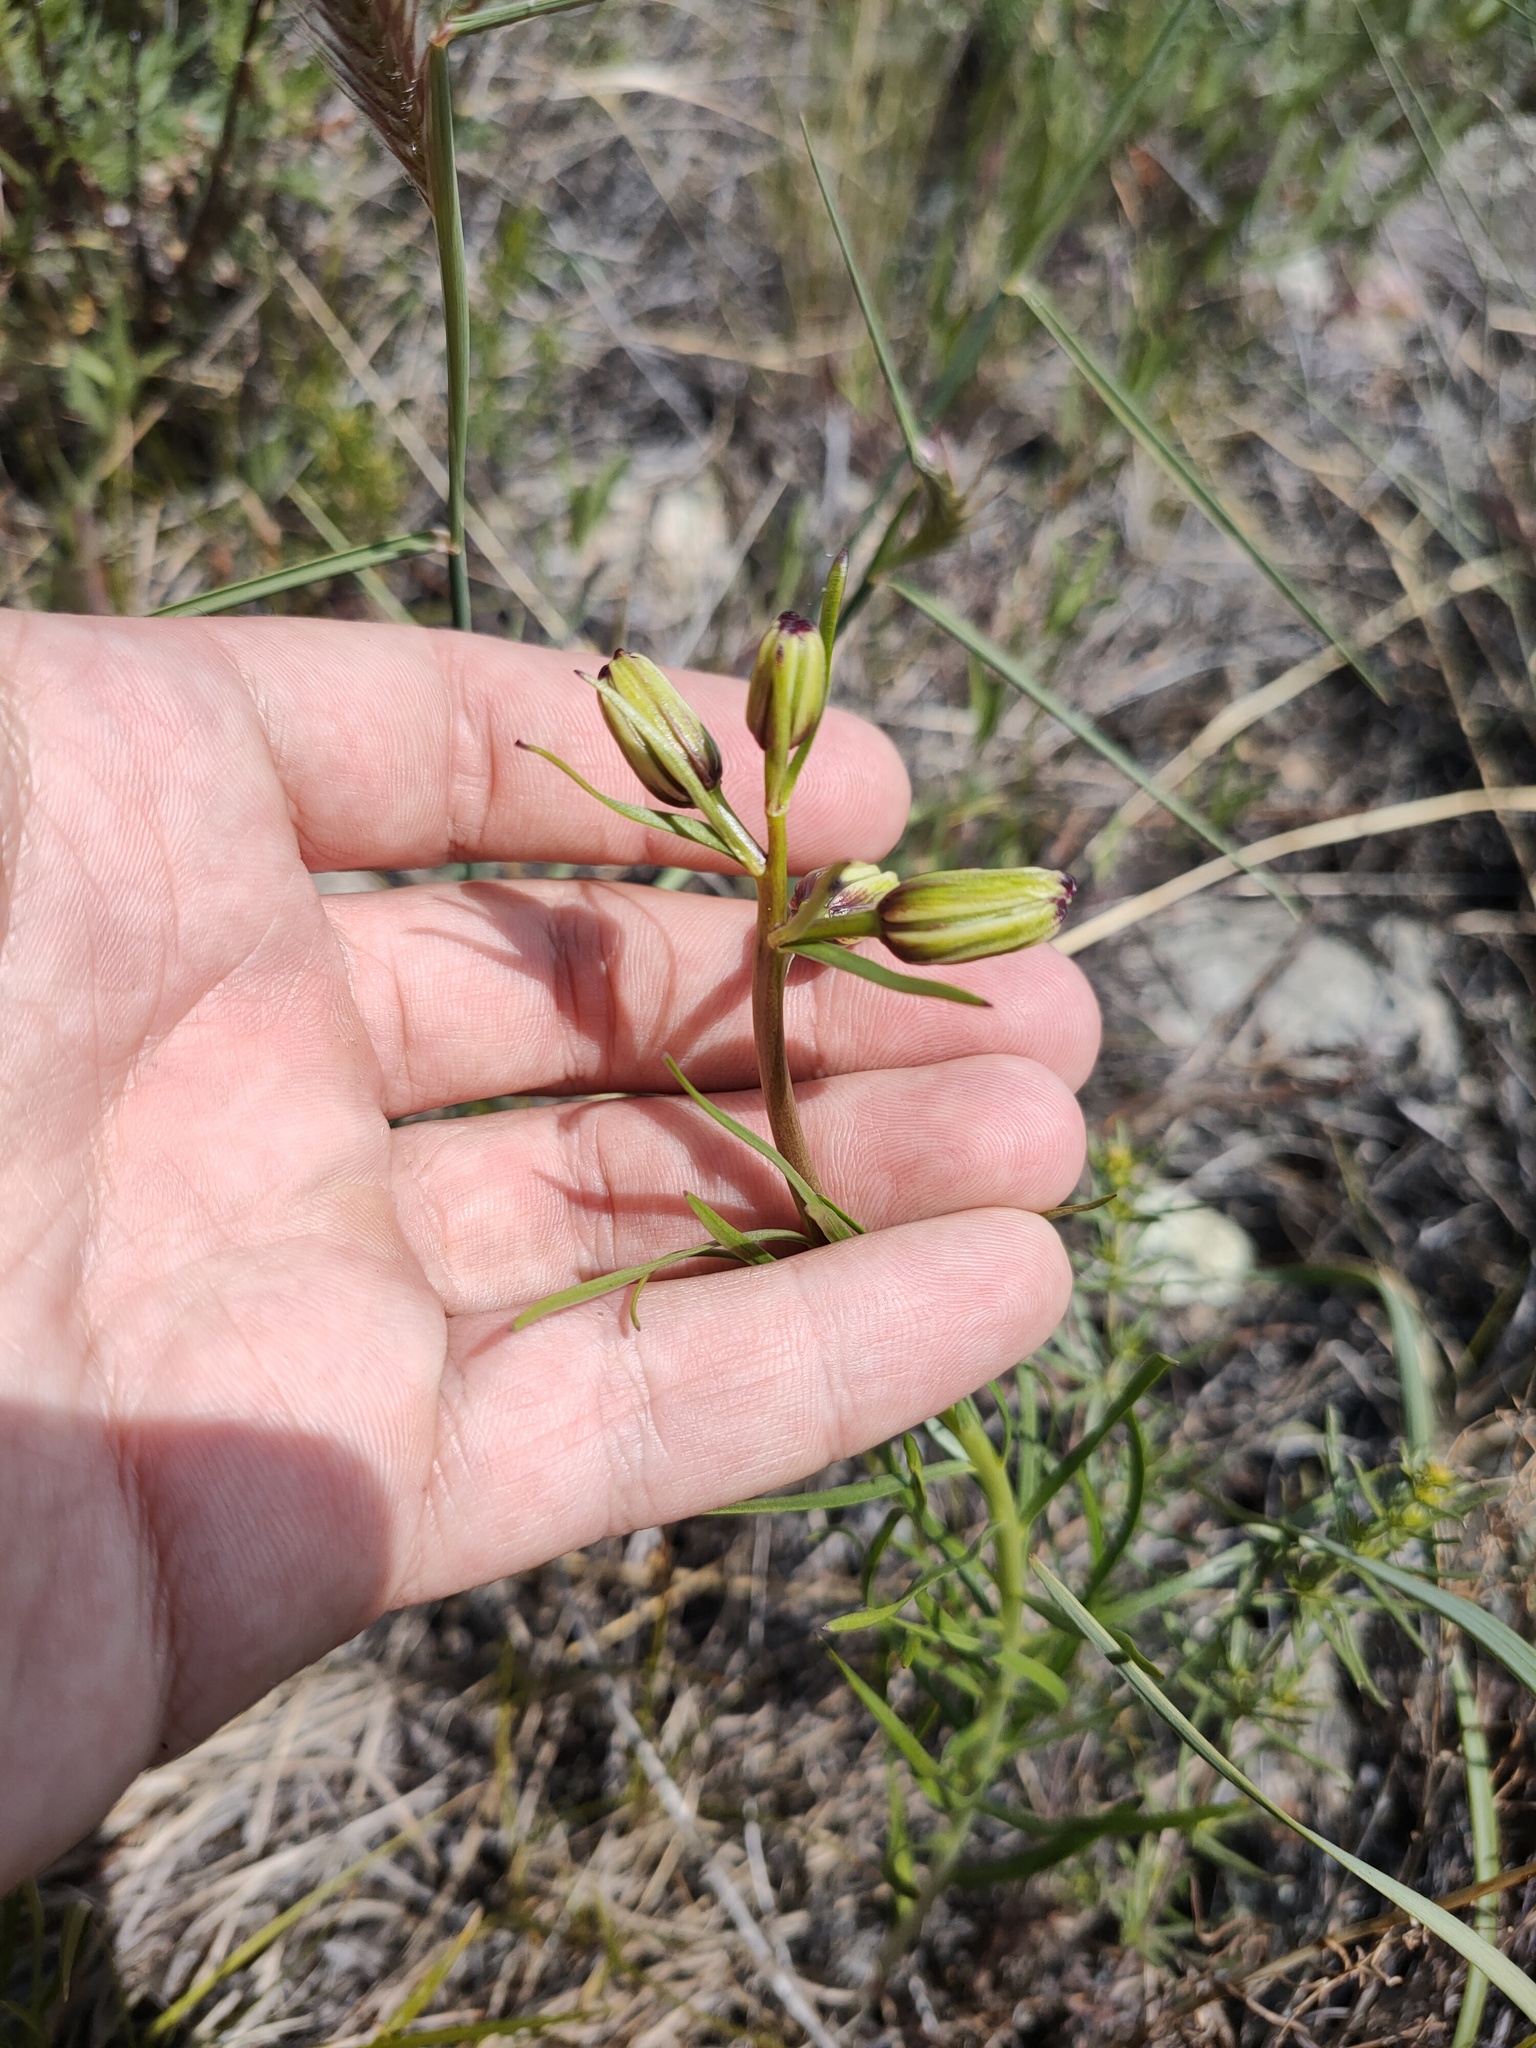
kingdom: Plantae
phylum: Tracheophyta
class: Liliopsida
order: Liliales
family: Liliaceae
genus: Lilium
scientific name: Lilium pumilum
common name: Coral lily
